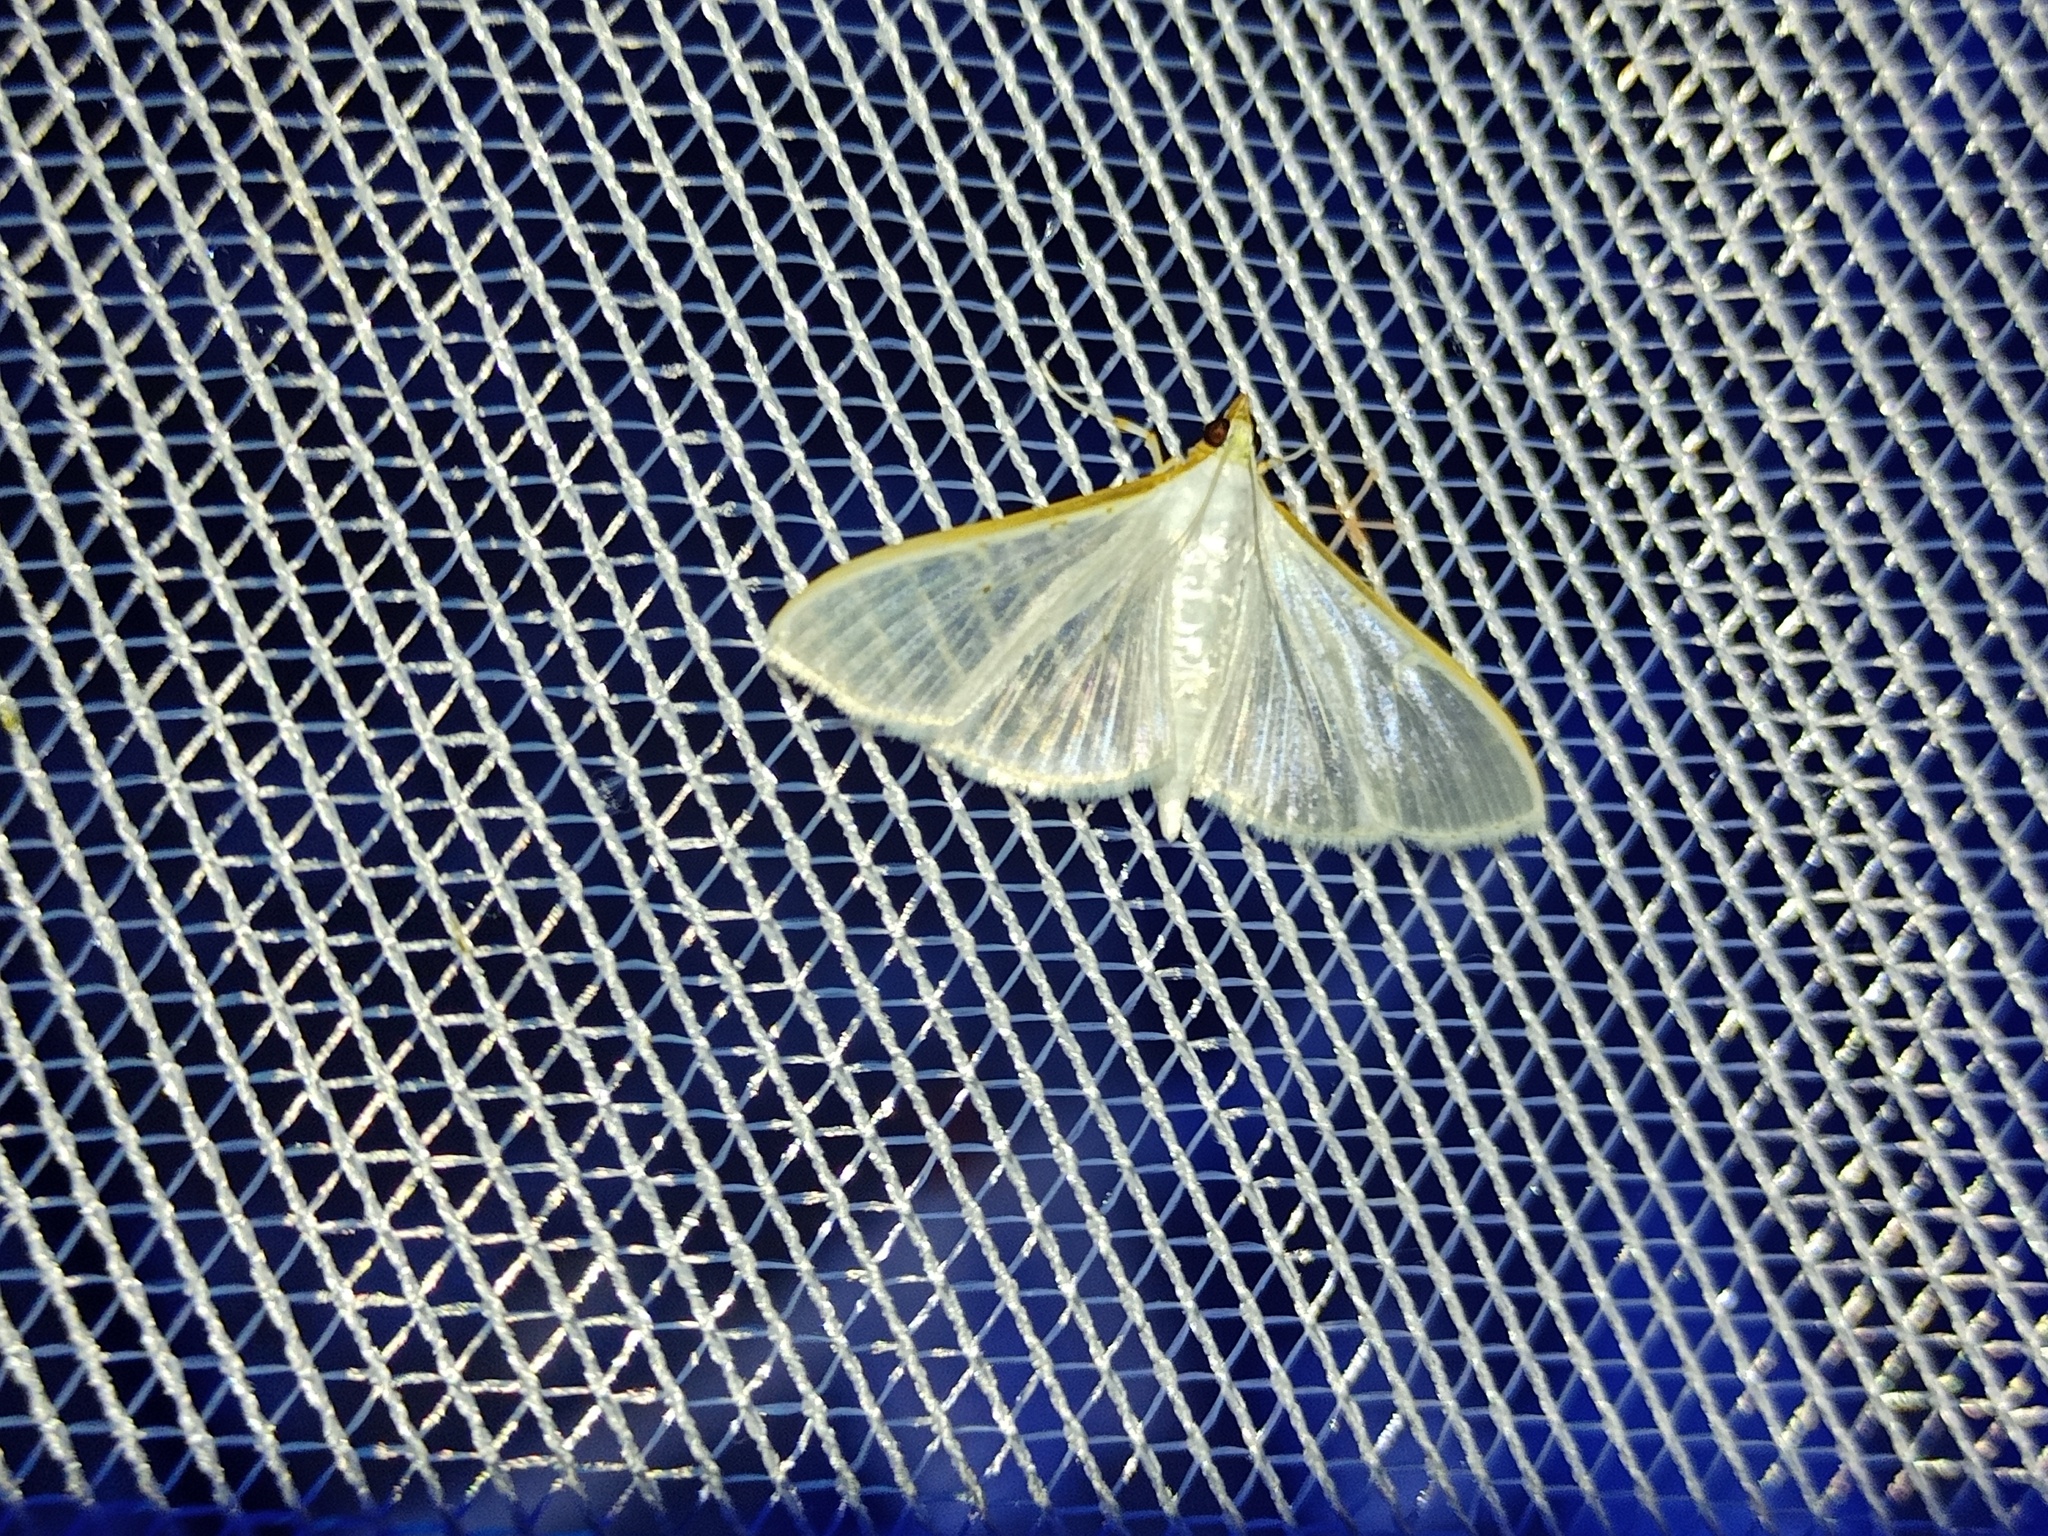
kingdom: Animalia
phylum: Arthropoda
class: Insecta
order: Lepidoptera
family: Crambidae
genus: Palpita
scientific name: Palpita vitrealis
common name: Olive-tree pearl
